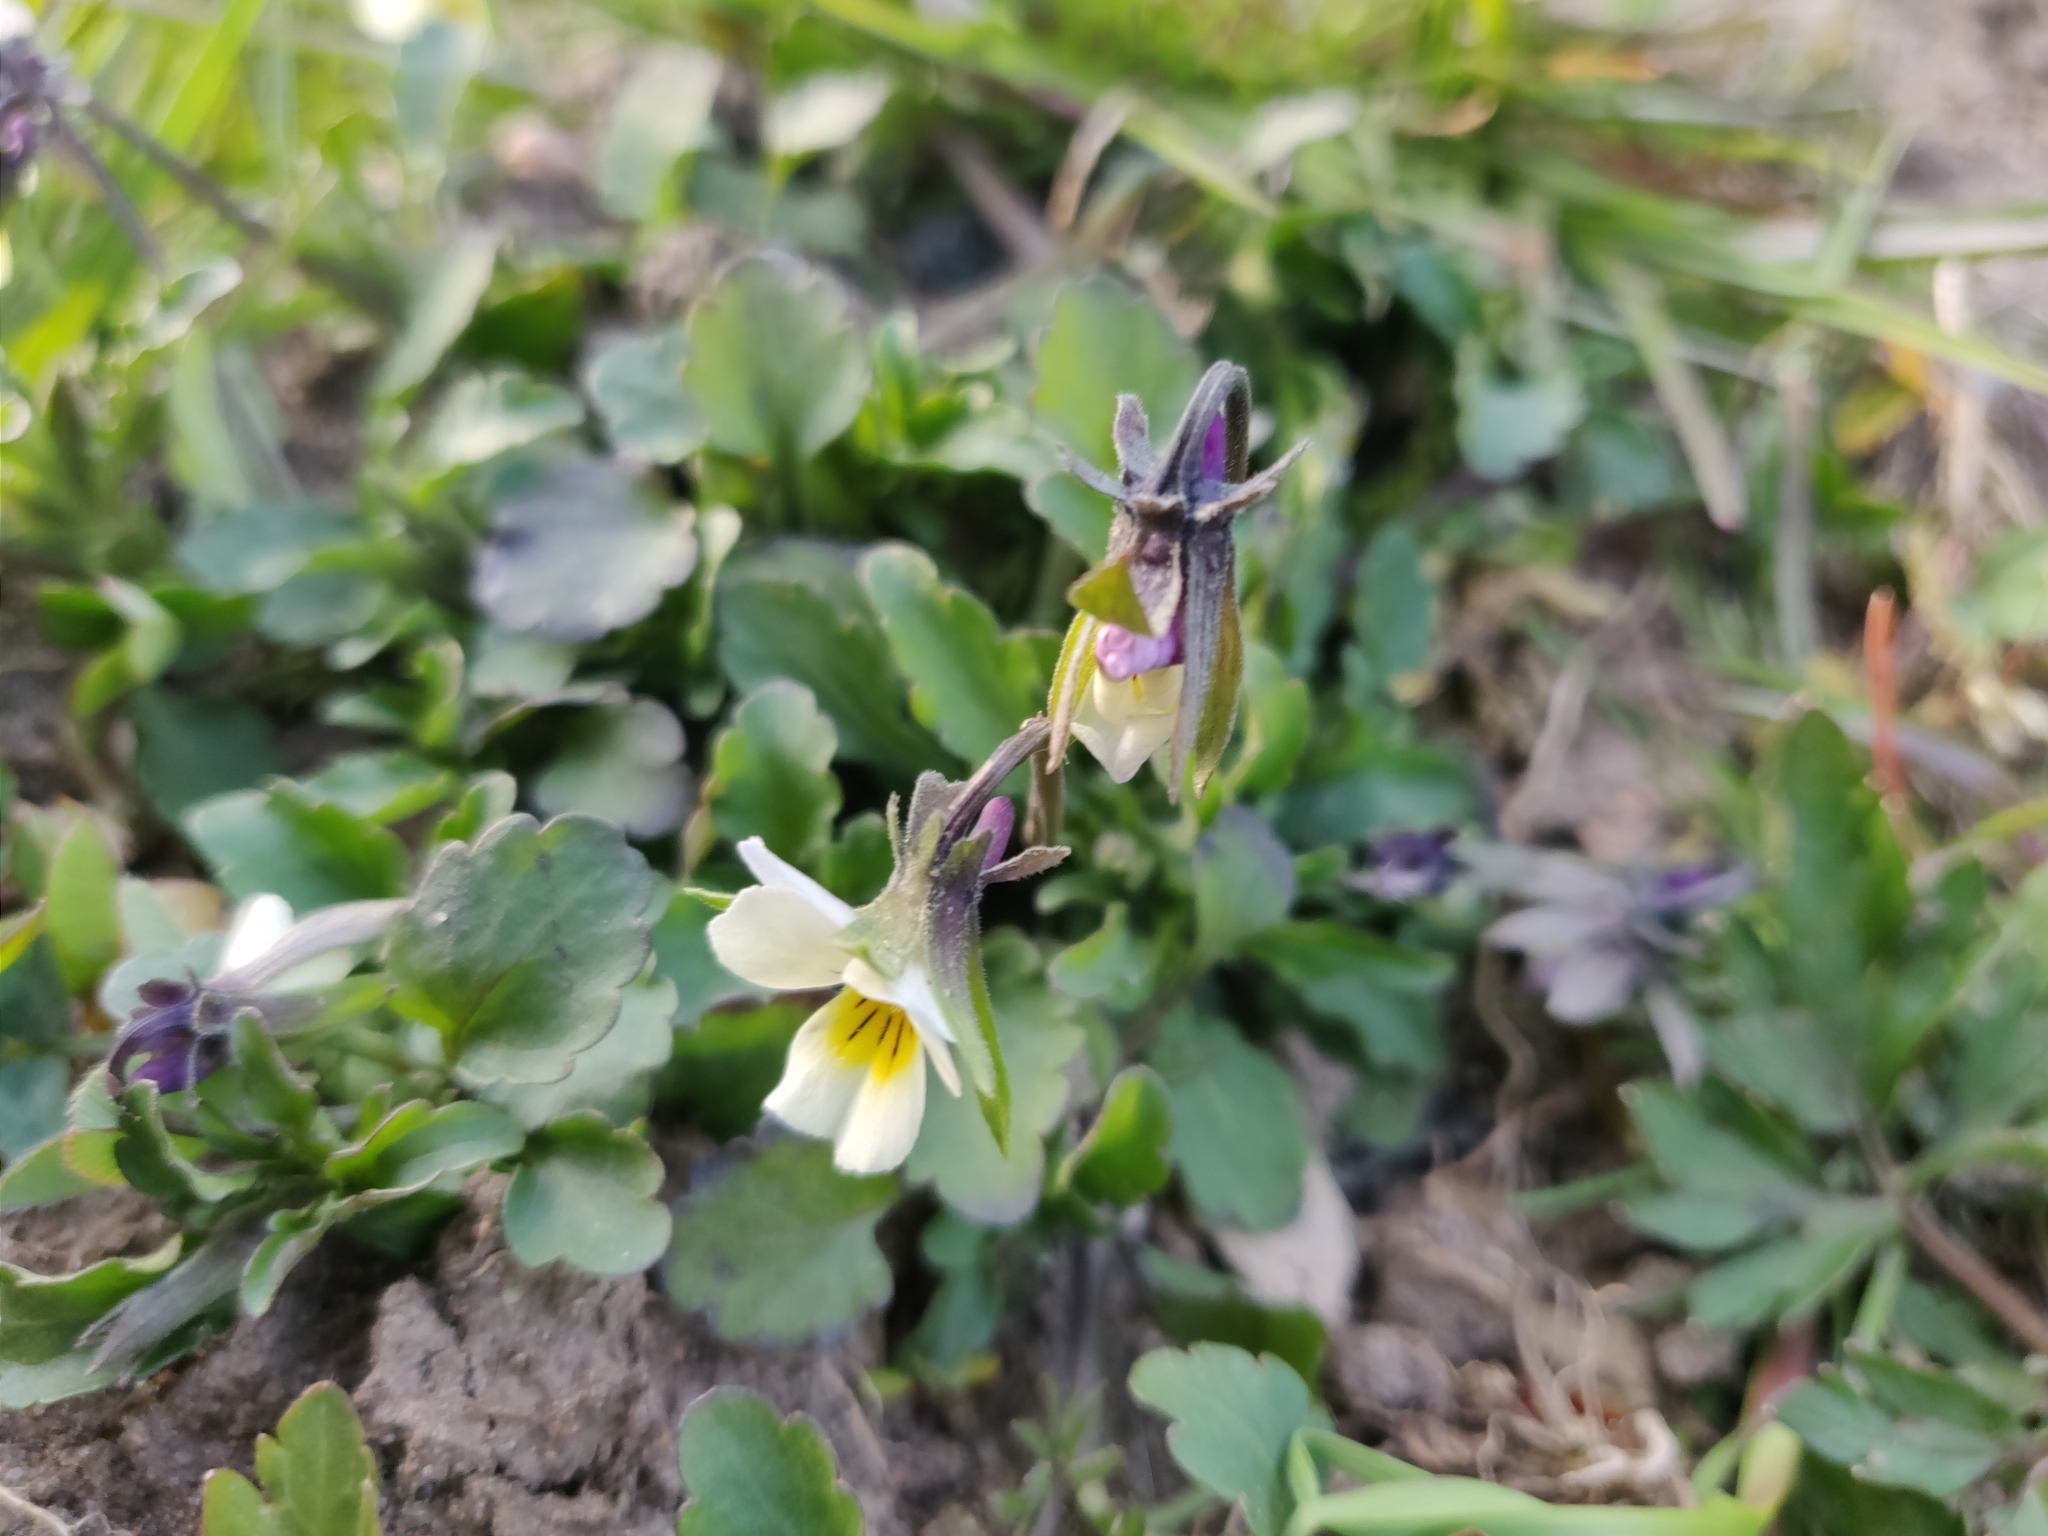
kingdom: Plantae
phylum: Tracheophyta
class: Magnoliopsida
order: Malpighiales
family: Violaceae
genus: Viola
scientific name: Viola arvensis
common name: Field pansy
